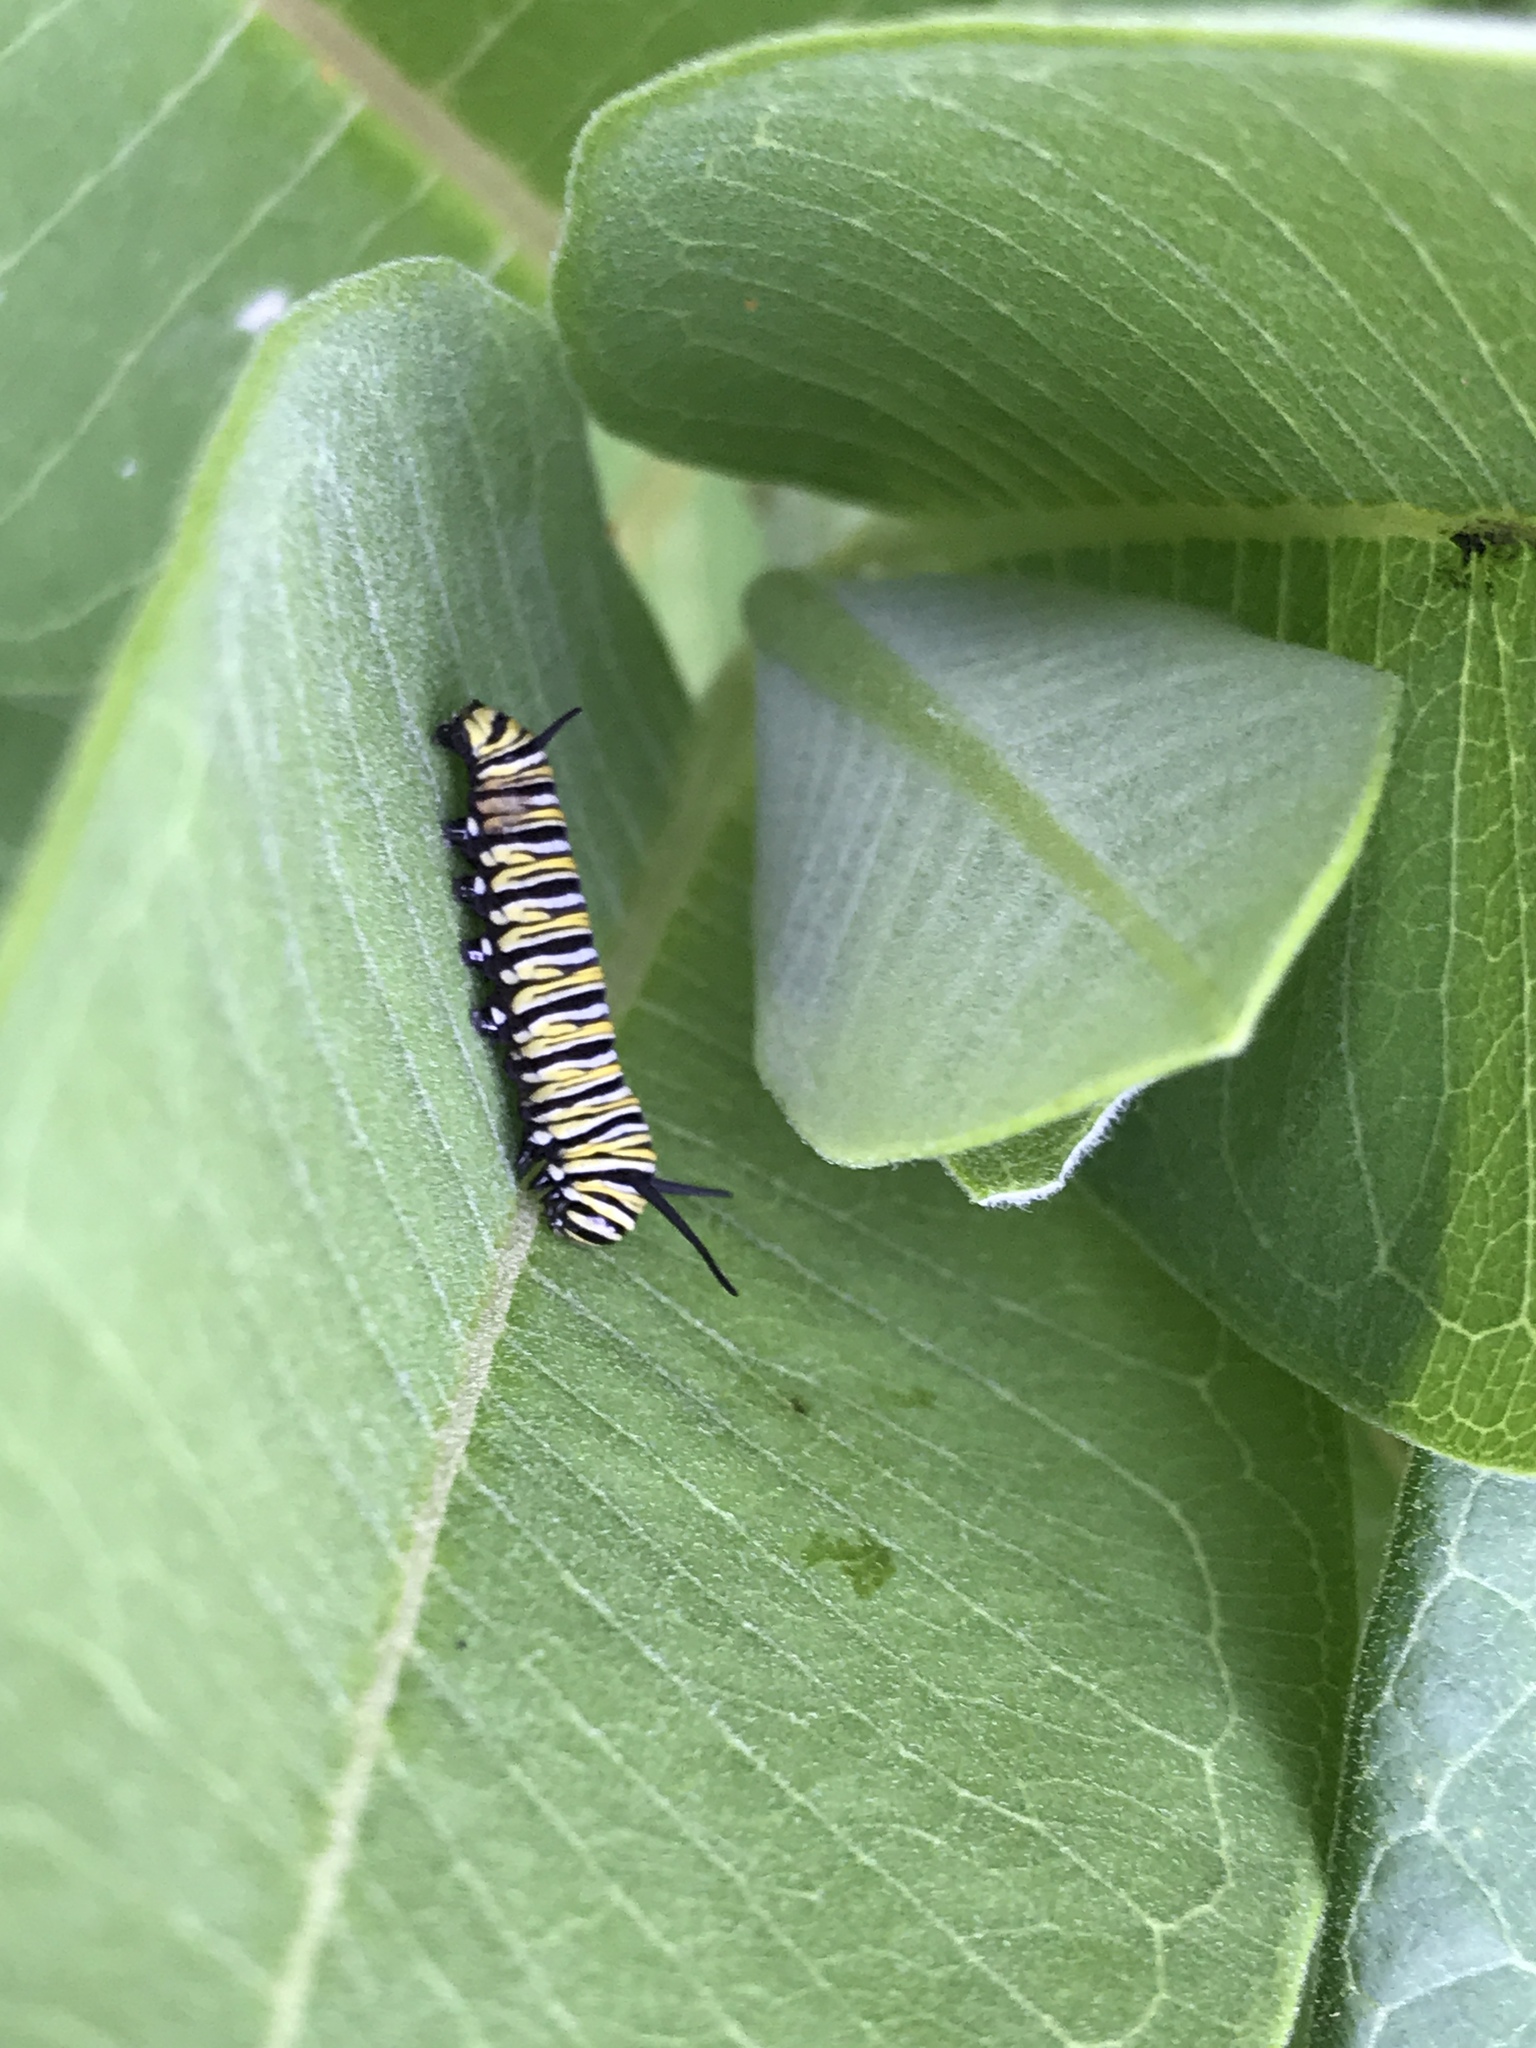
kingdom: Animalia
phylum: Arthropoda
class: Insecta
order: Lepidoptera
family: Nymphalidae
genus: Danaus
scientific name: Danaus plexippus
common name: Monarch
